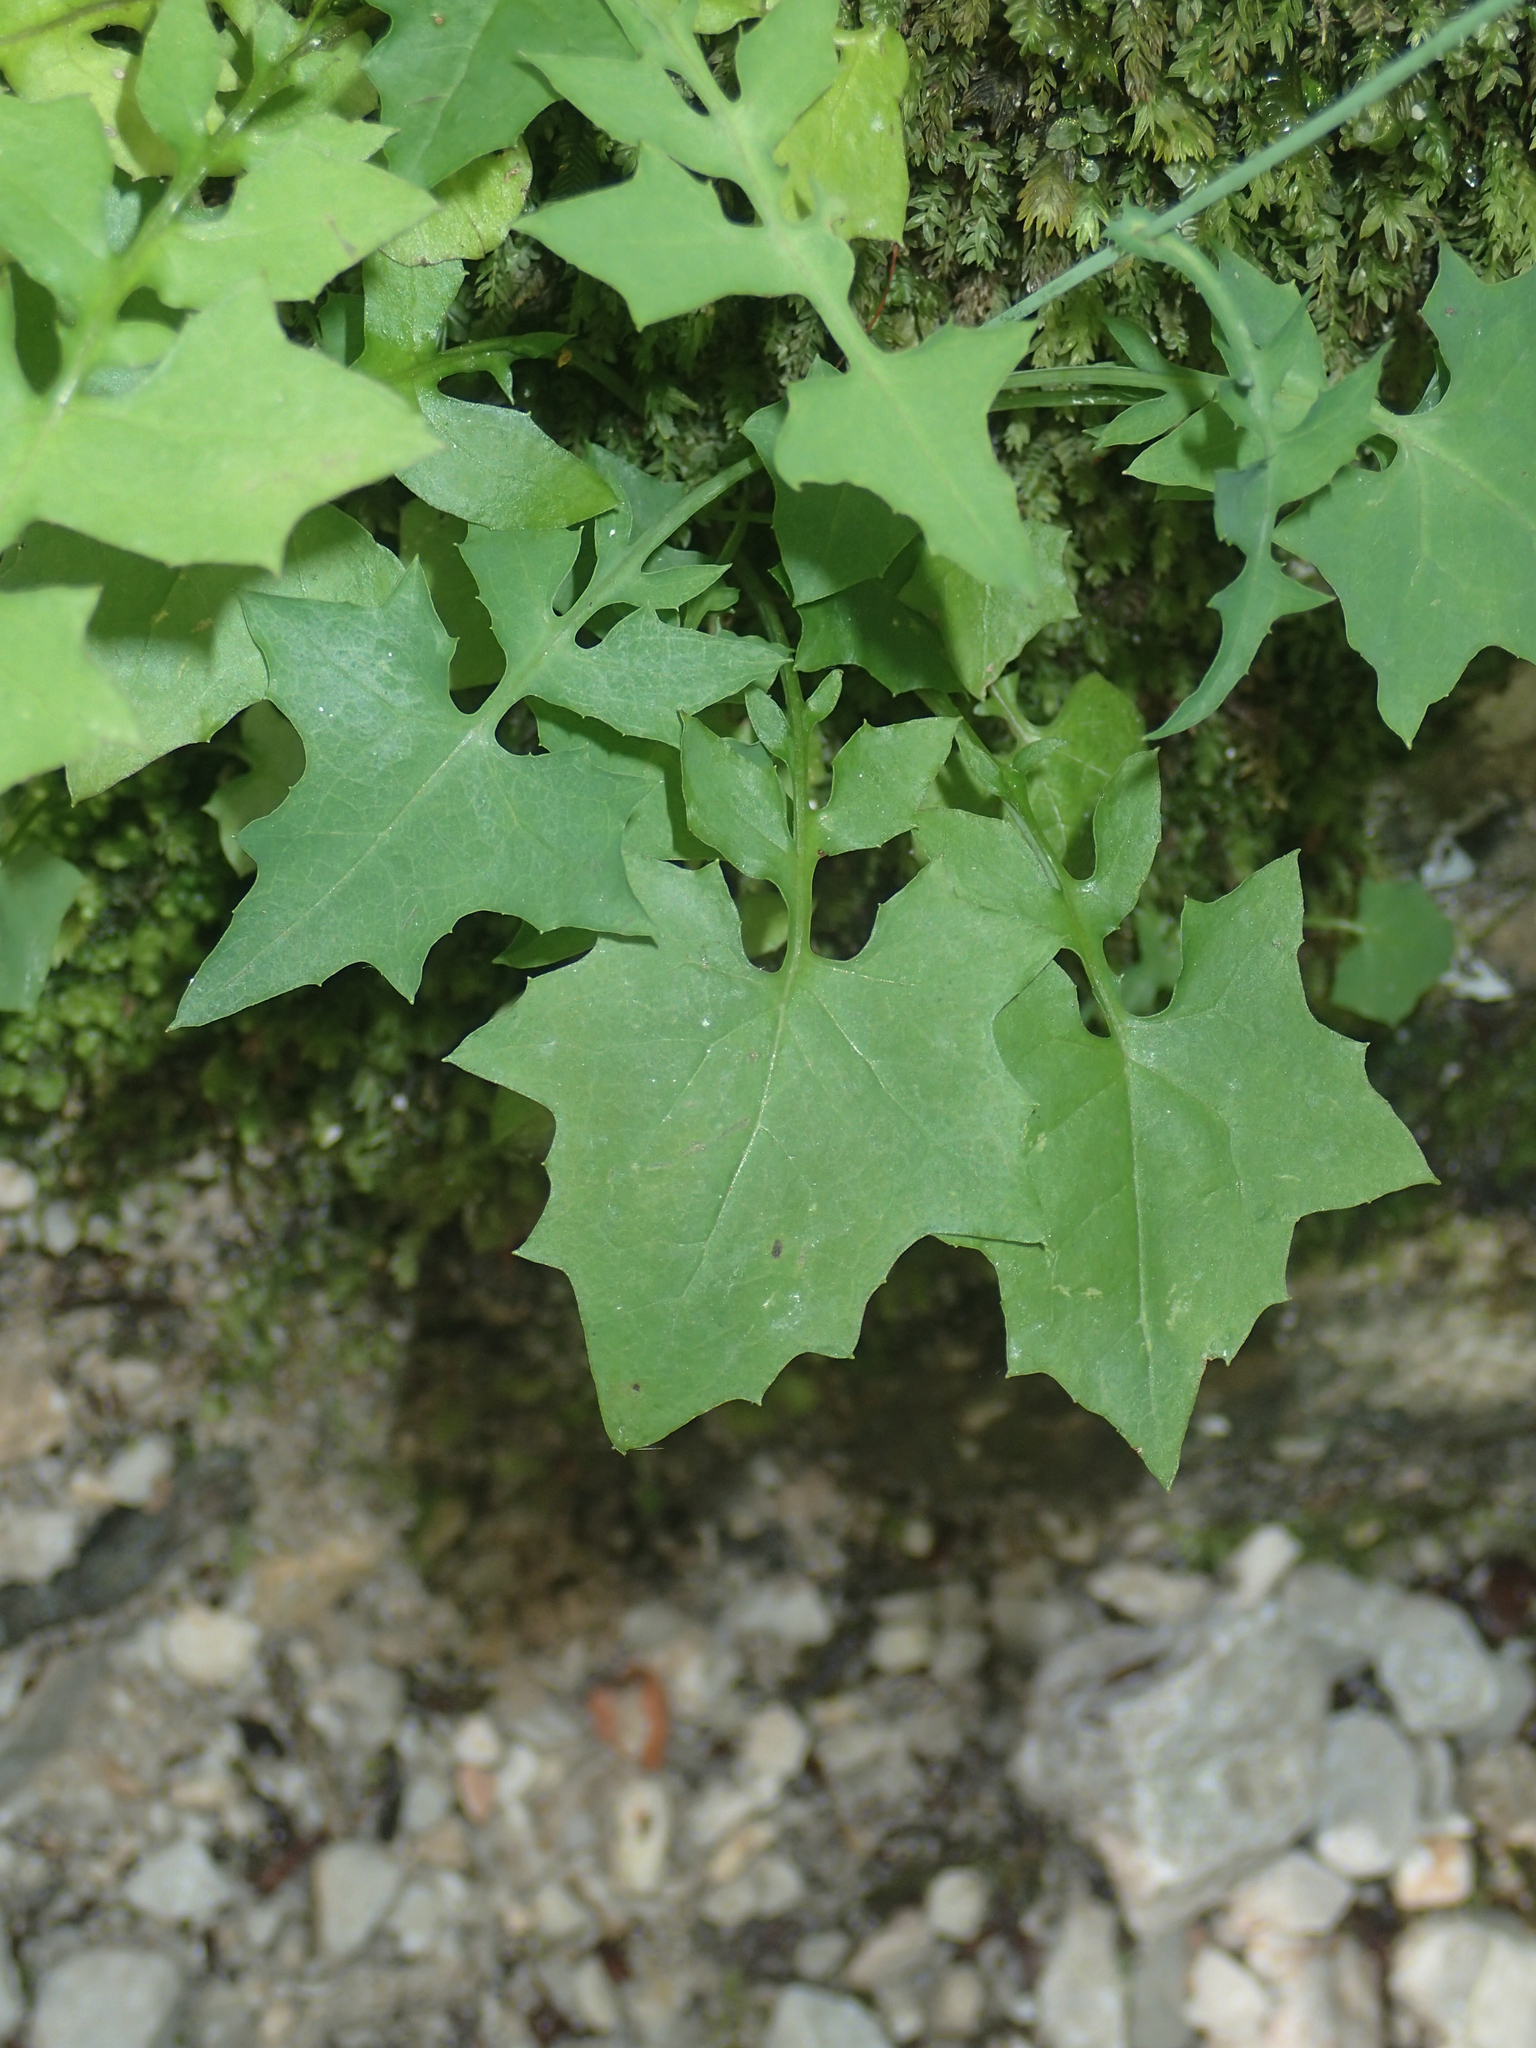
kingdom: Plantae
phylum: Tracheophyta
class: Magnoliopsida
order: Asterales
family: Asteraceae
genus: Mycelis
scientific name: Mycelis muralis
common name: Wall lettuce
